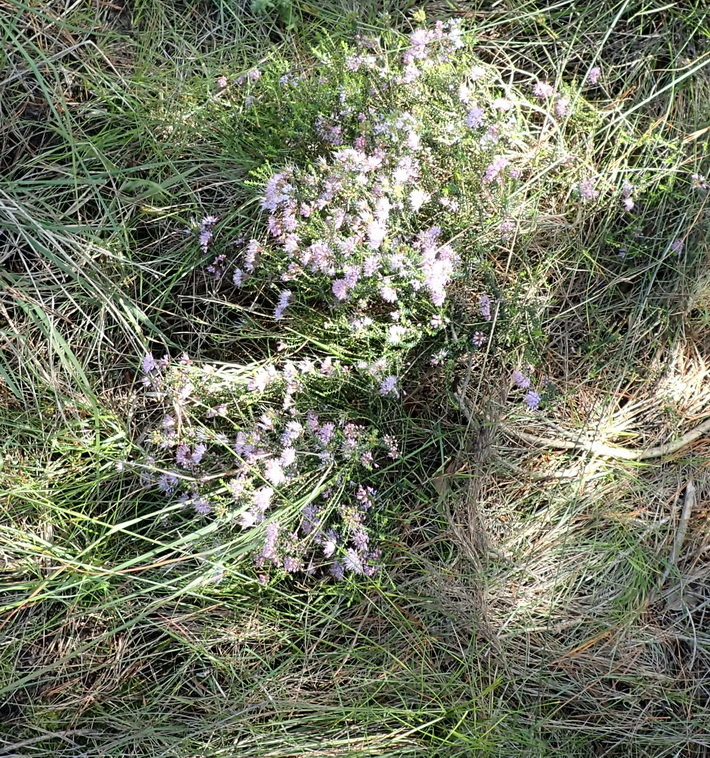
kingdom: Plantae
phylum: Tracheophyta
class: Magnoliopsida
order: Sapindales
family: Rutaceae
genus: Agathosma
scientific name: Agathosma capensis
